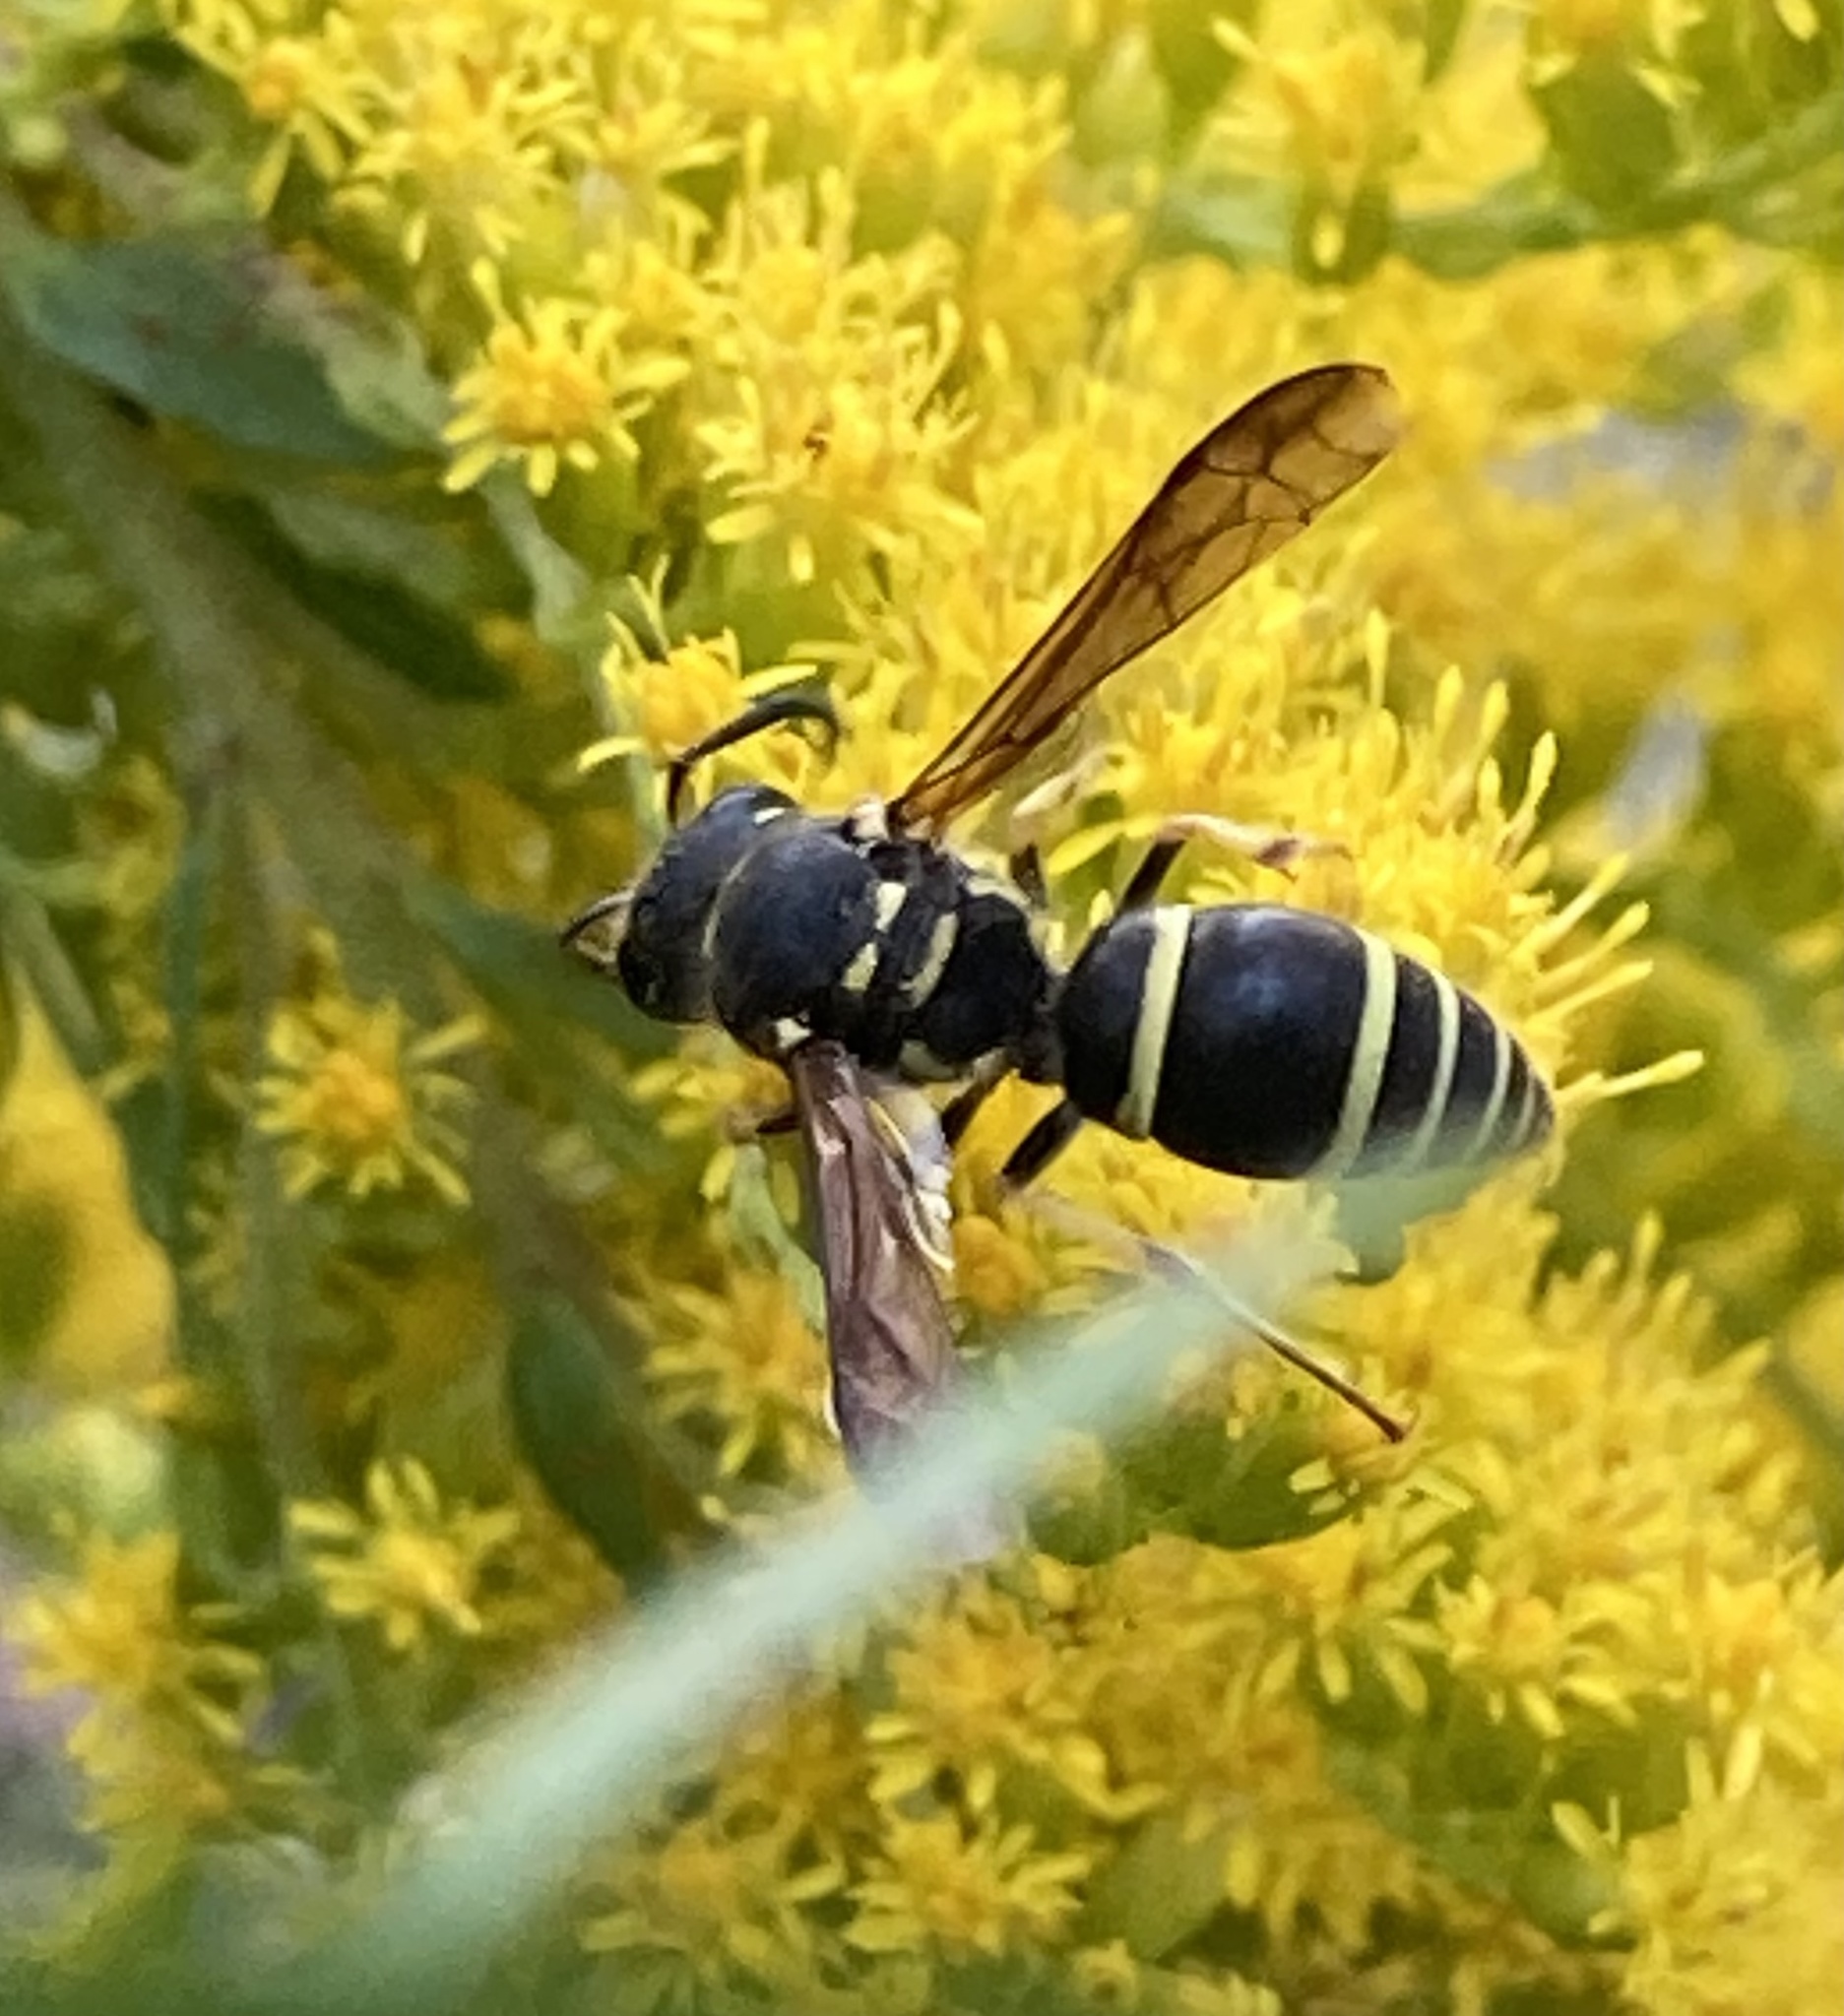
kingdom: Animalia
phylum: Arthropoda
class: Insecta
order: Hymenoptera
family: Vespidae
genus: Ancistrocerus
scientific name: Ancistrocerus catskill
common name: Vespid wasp
